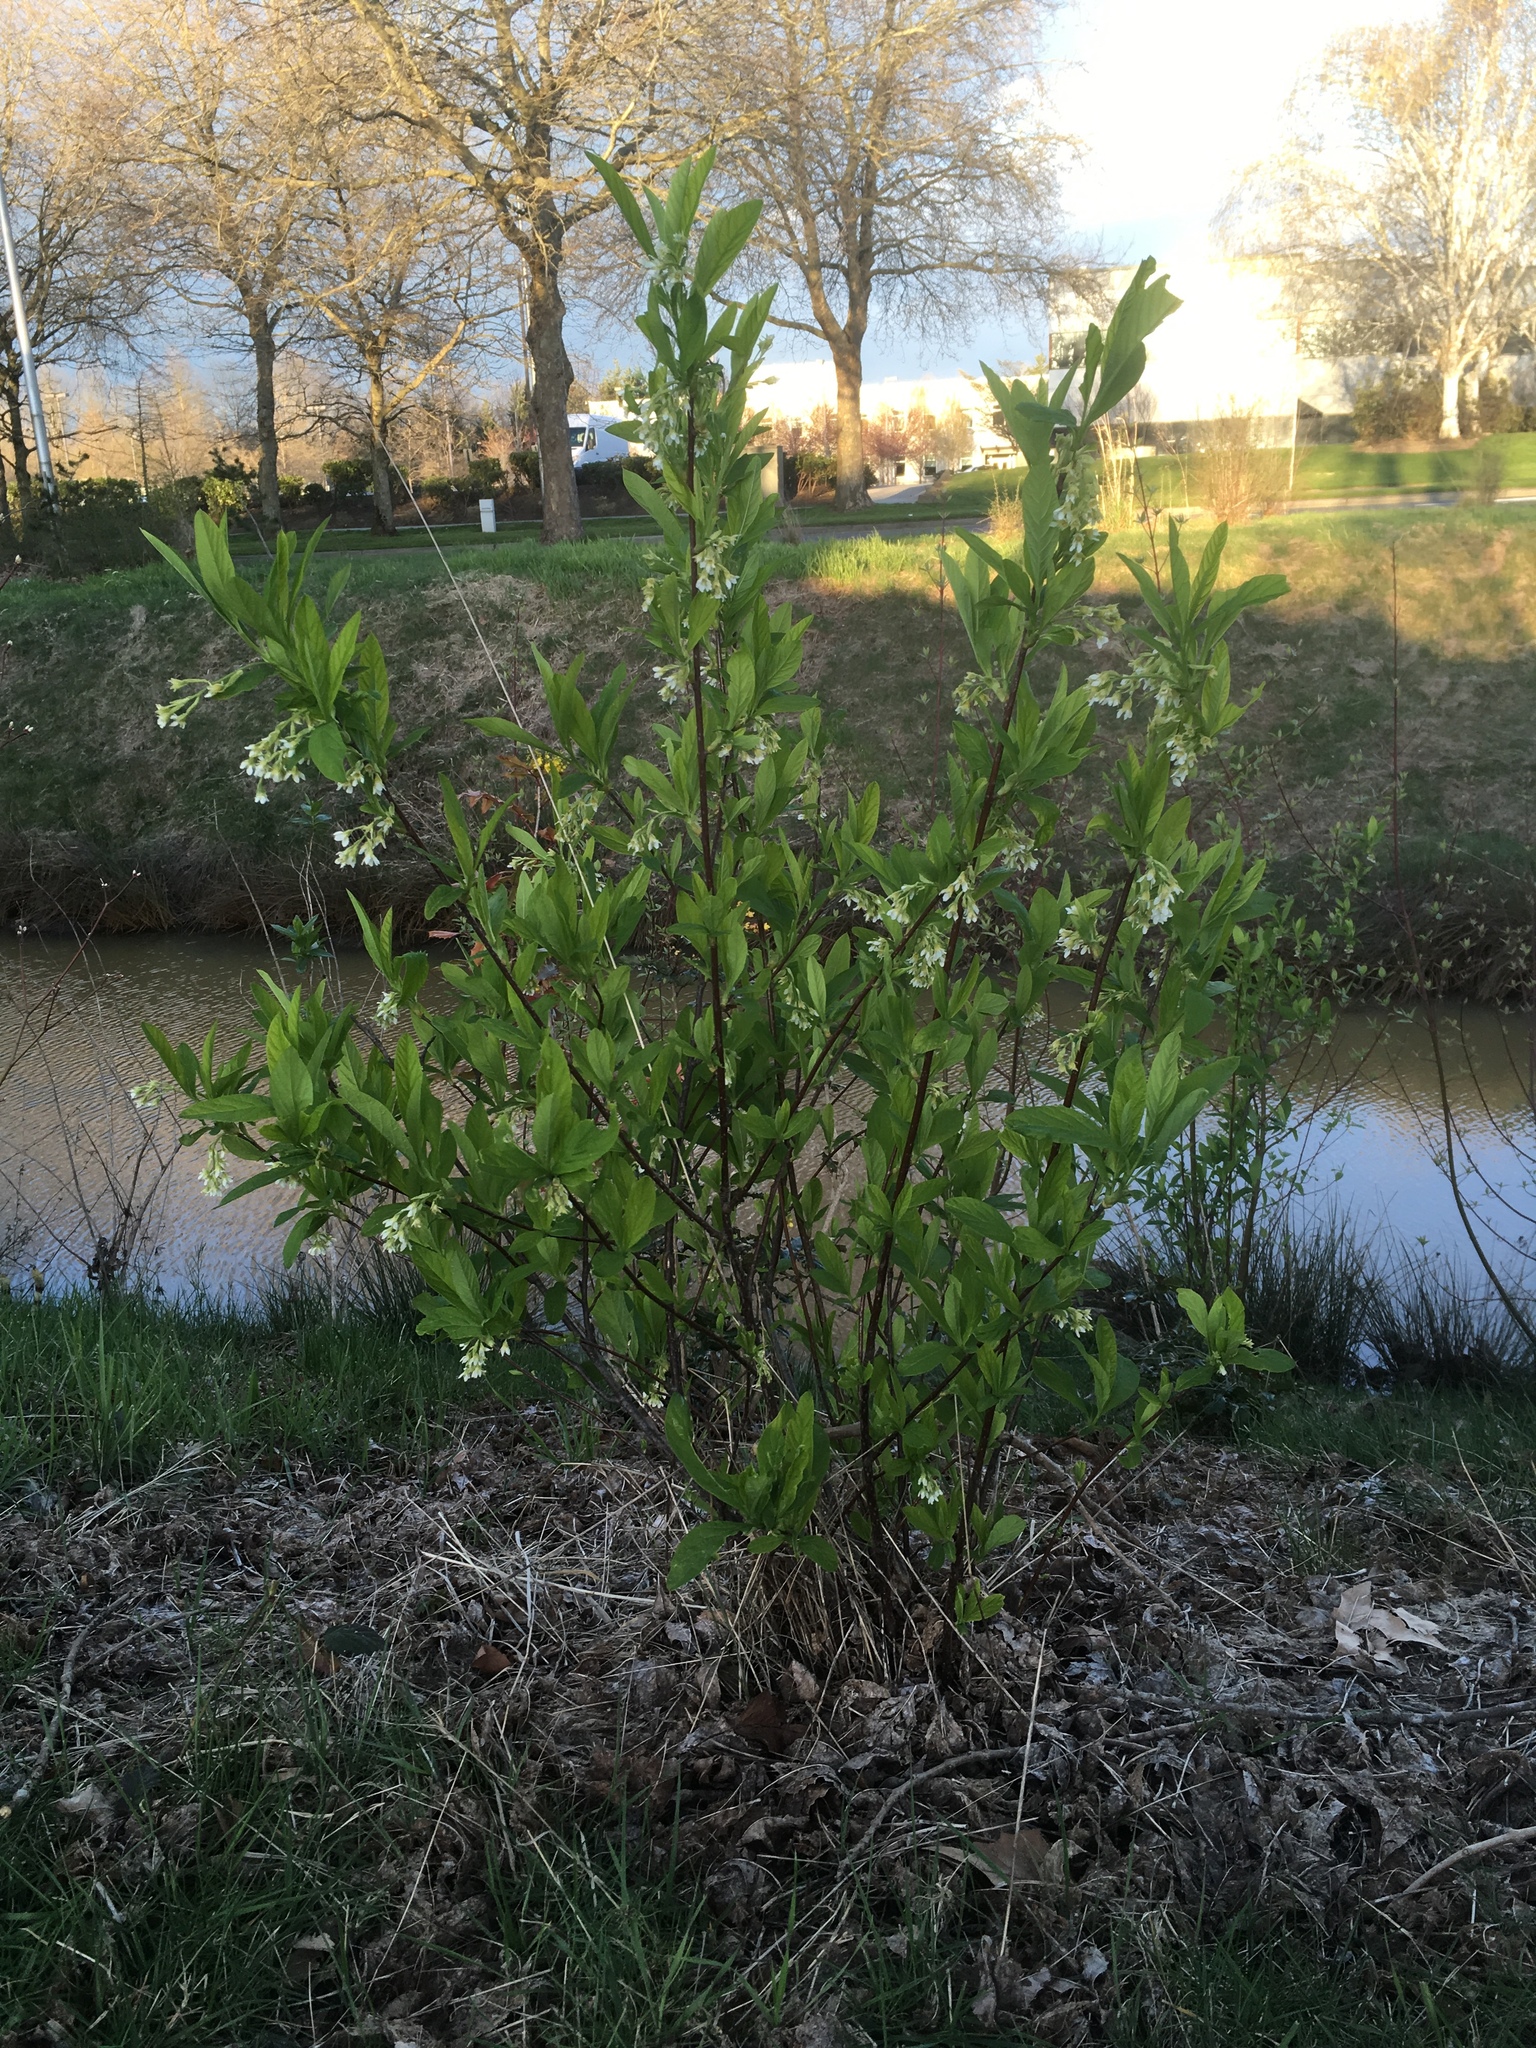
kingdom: Plantae
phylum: Tracheophyta
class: Magnoliopsida
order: Rosales
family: Rosaceae
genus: Oemleria
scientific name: Oemleria cerasiformis
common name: Osoberry
